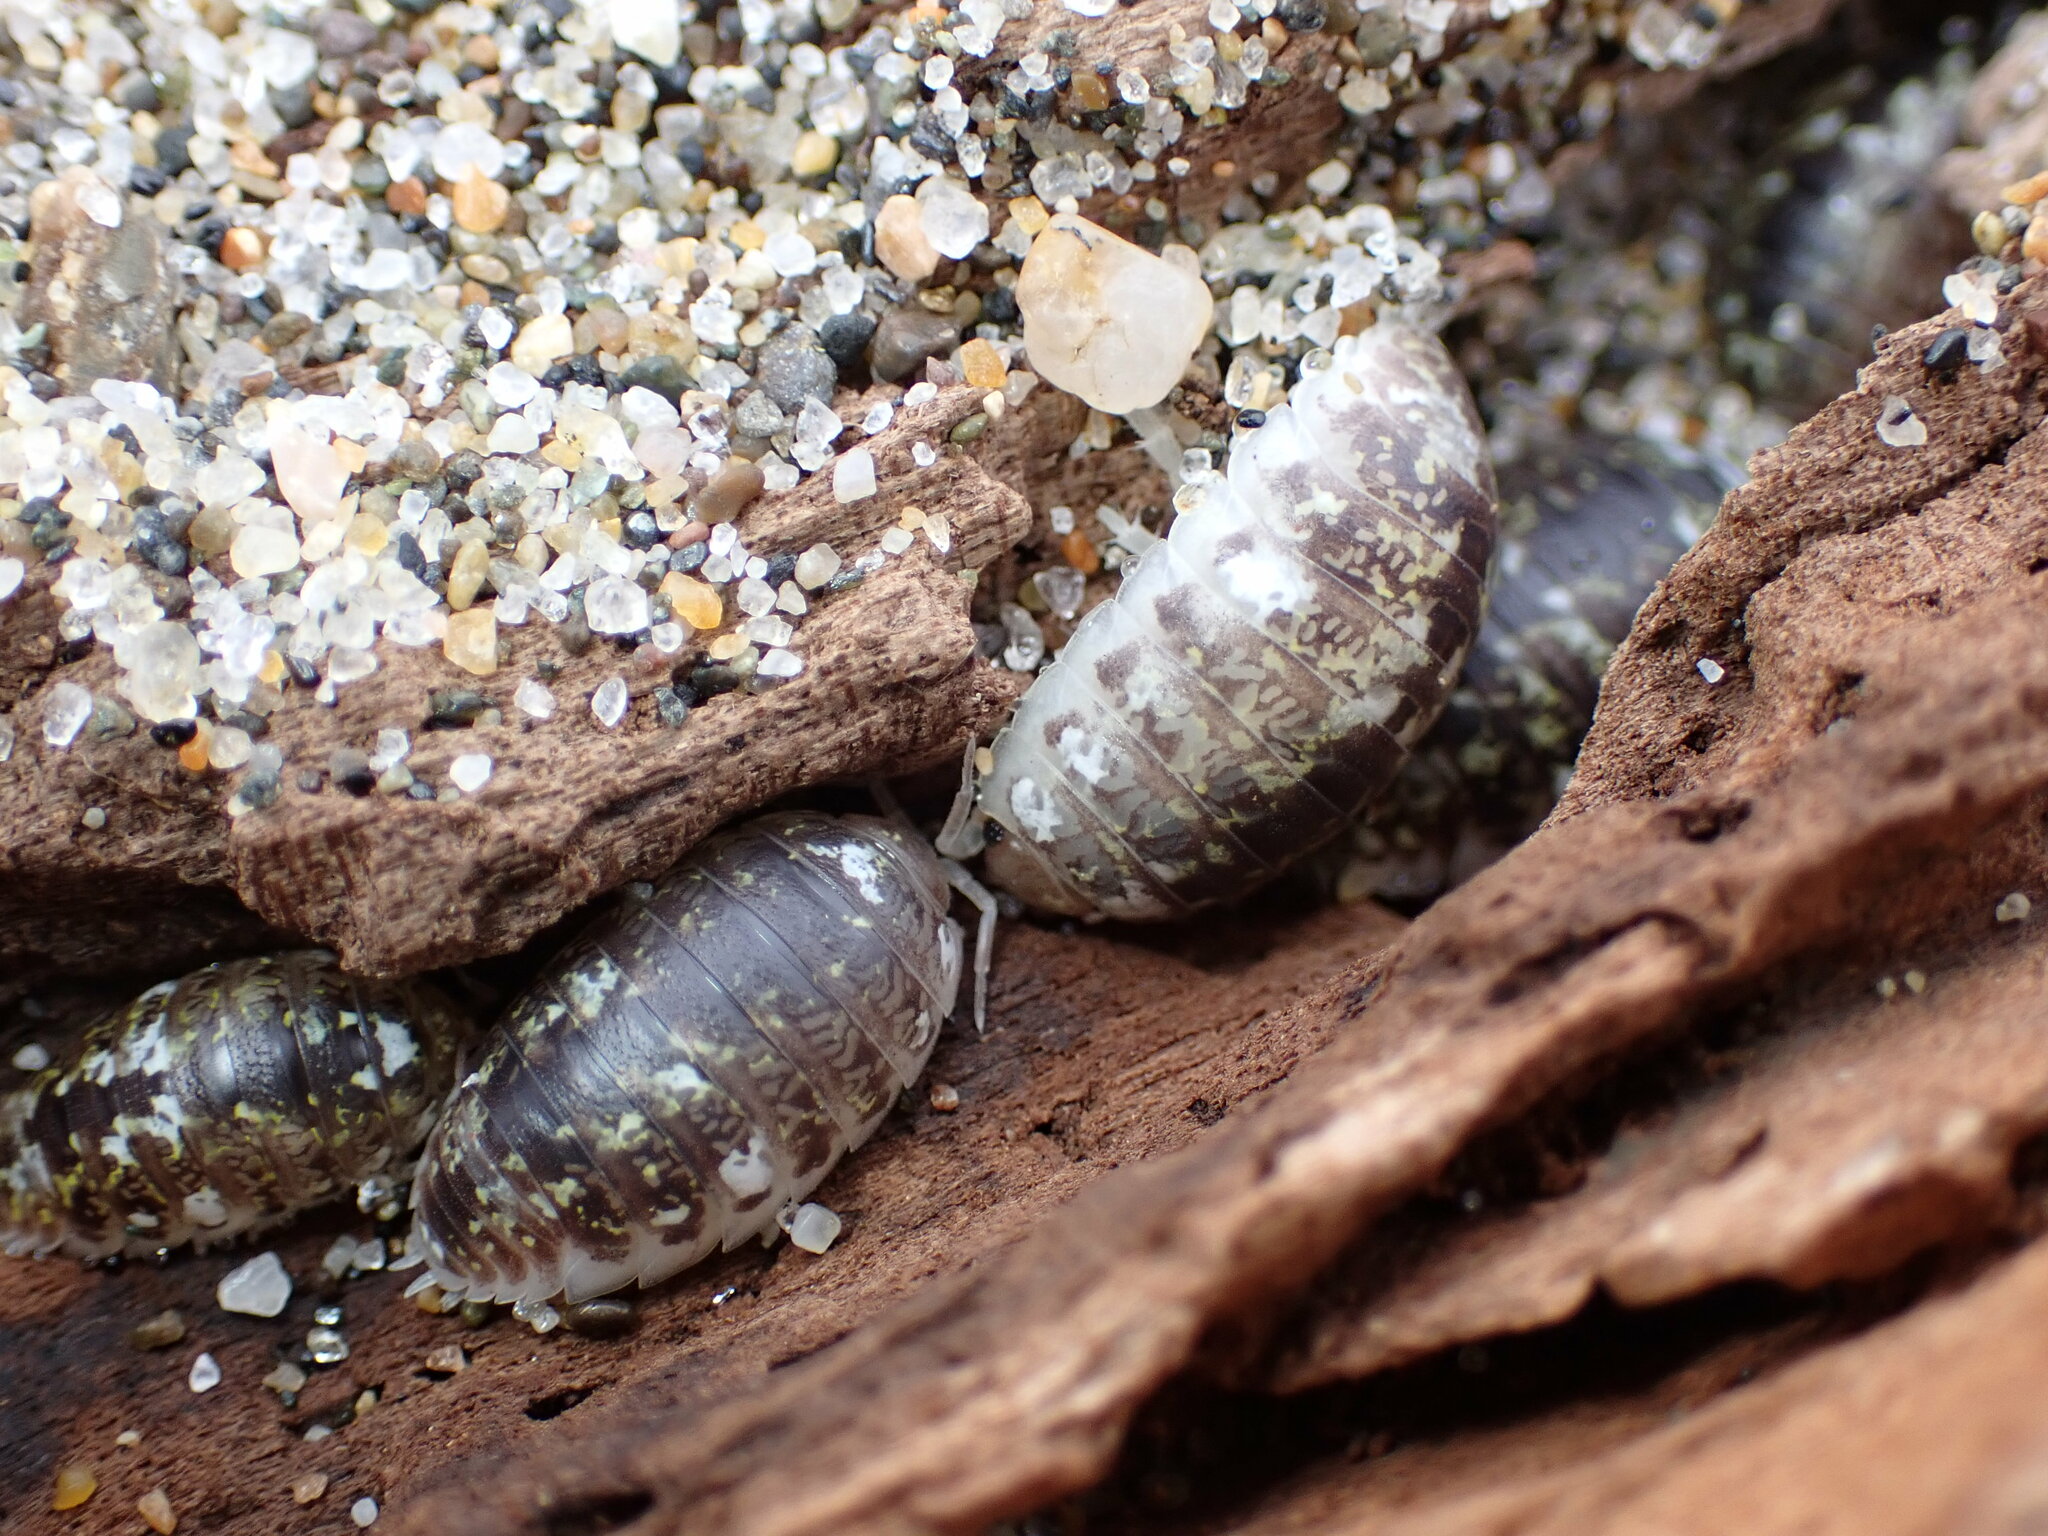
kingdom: Animalia
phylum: Arthropoda
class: Malacostraca
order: Isopoda
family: Alloniscidae
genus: Alloniscus
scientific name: Alloniscus perconvexus
